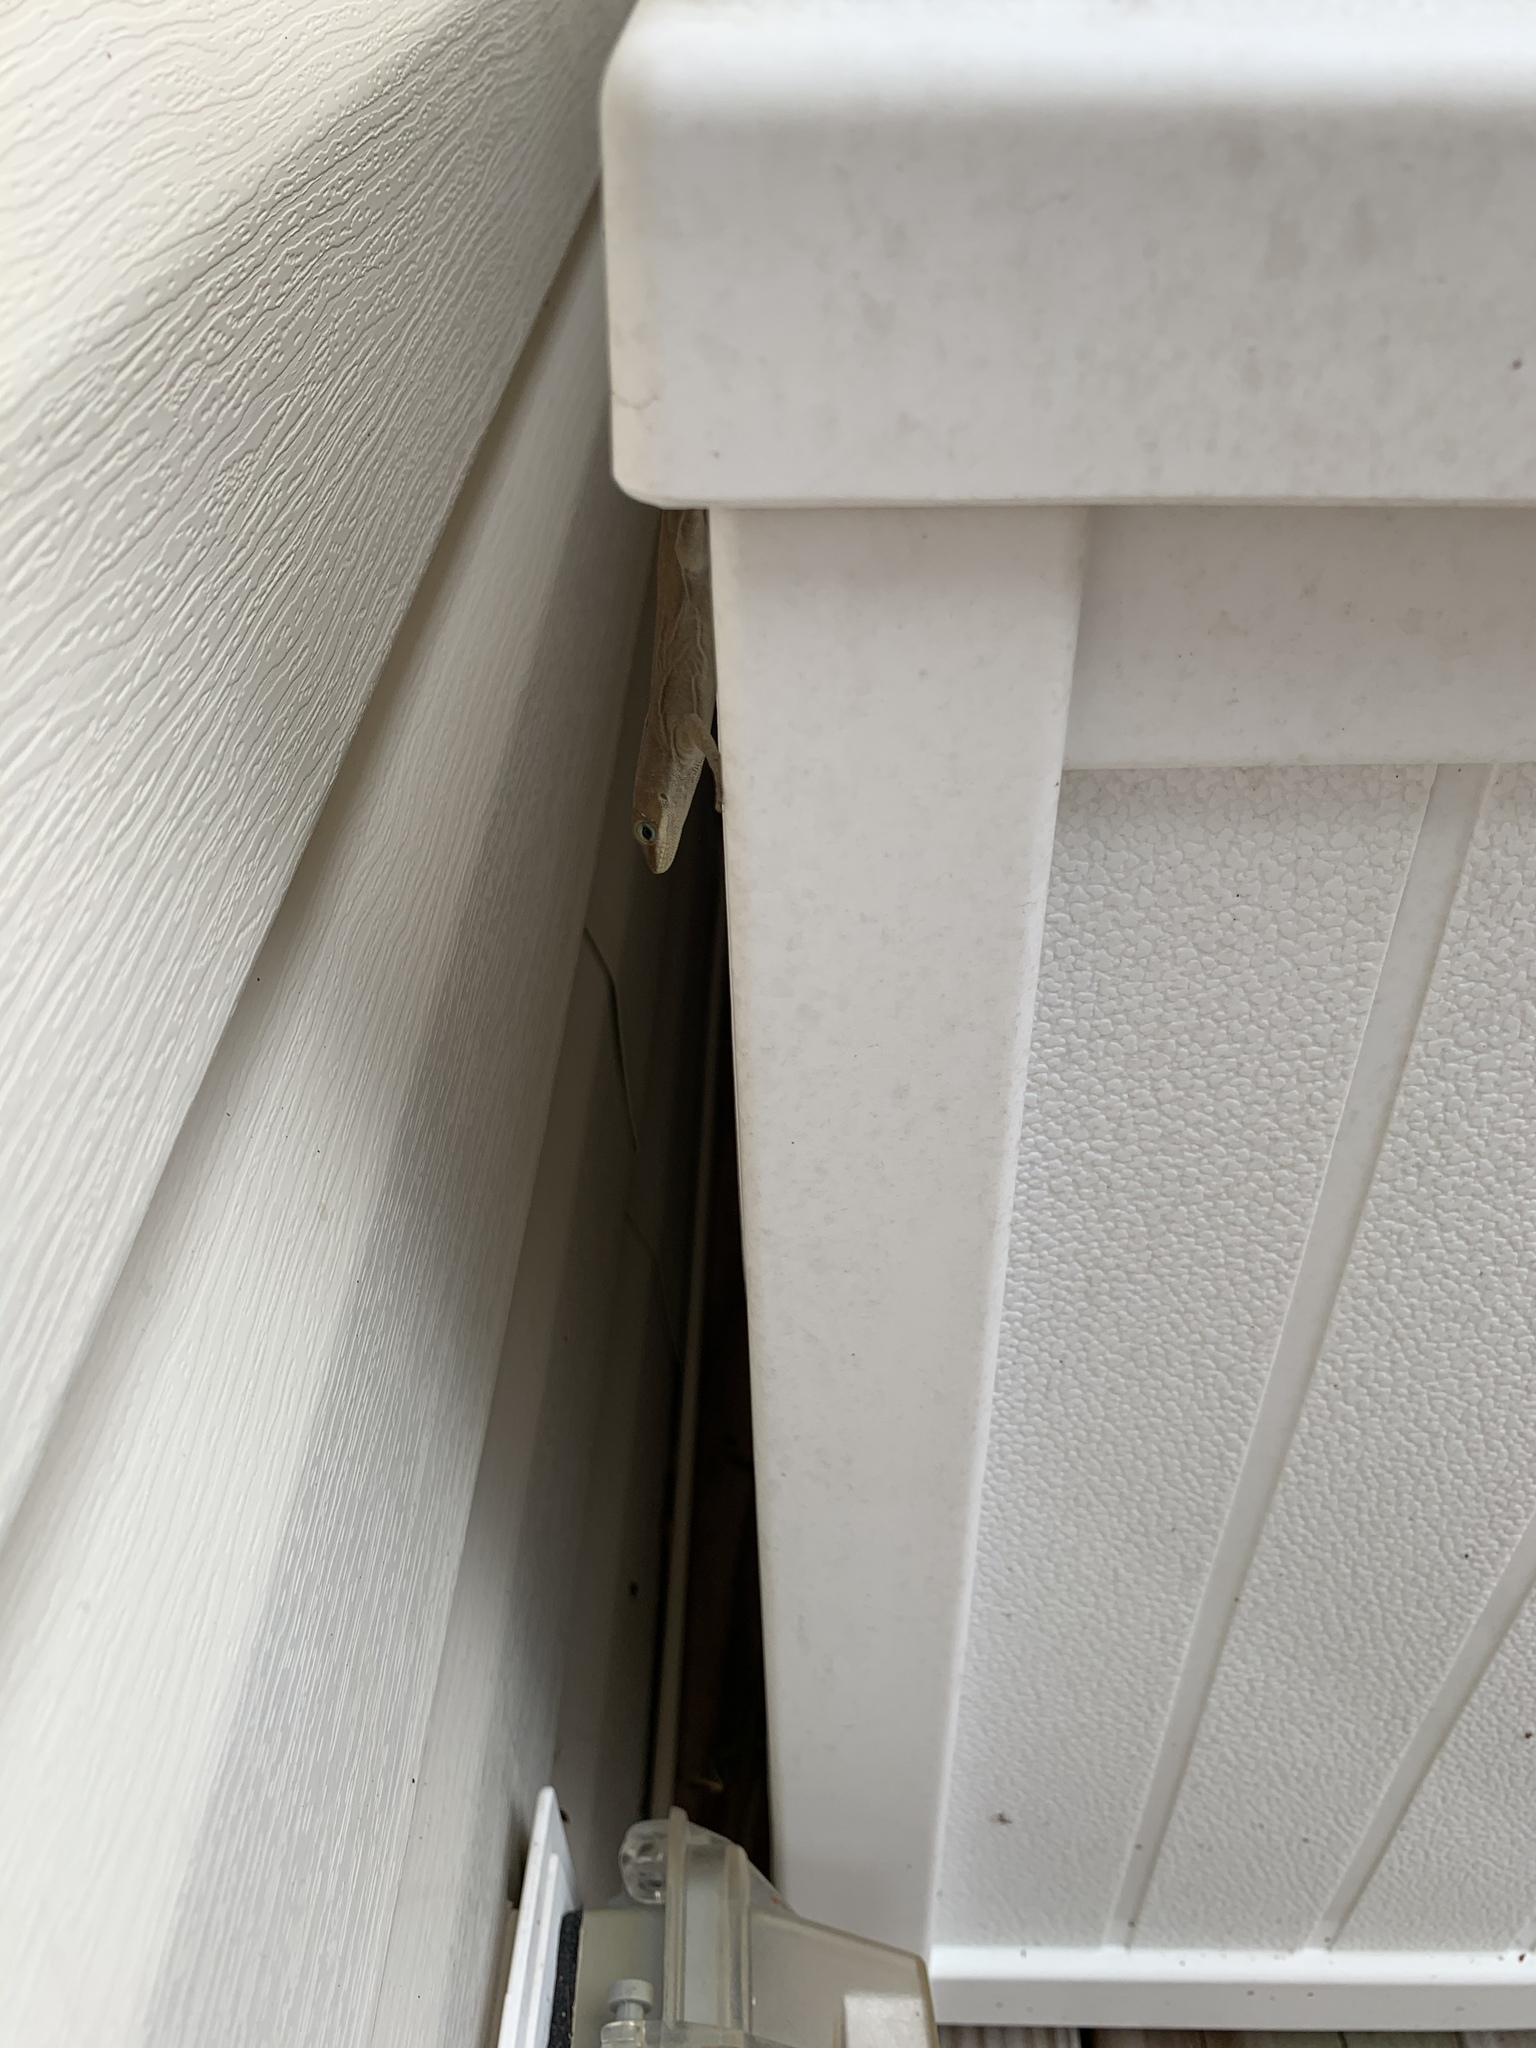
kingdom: Animalia
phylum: Chordata
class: Squamata
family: Dactyloidae
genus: Anolis
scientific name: Anolis carolinensis
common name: Green anole
